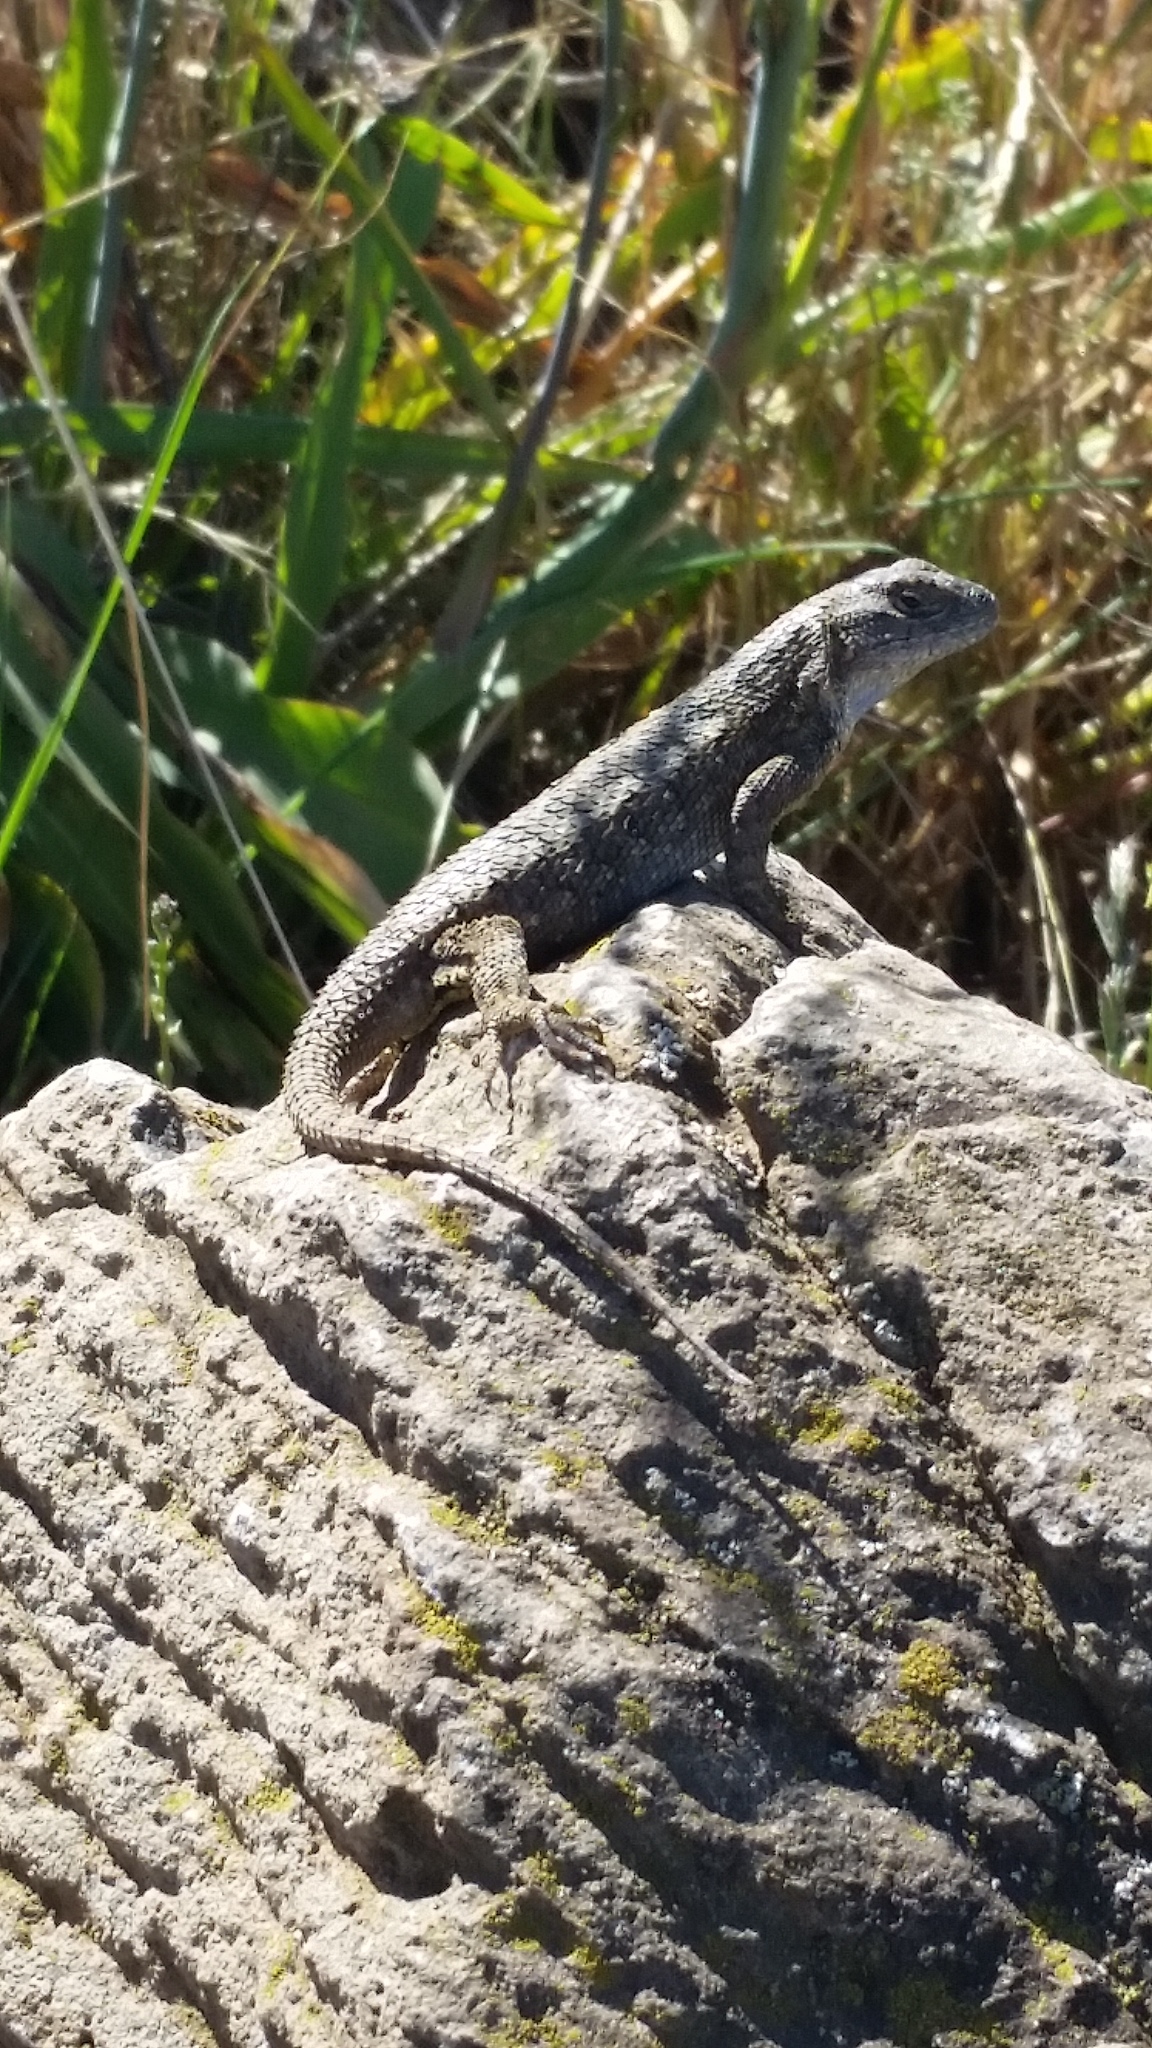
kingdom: Animalia
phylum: Chordata
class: Squamata
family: Phrynosomatidae
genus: Sceloporus
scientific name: Sceloporus occidentalis
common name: Western fence lizard
